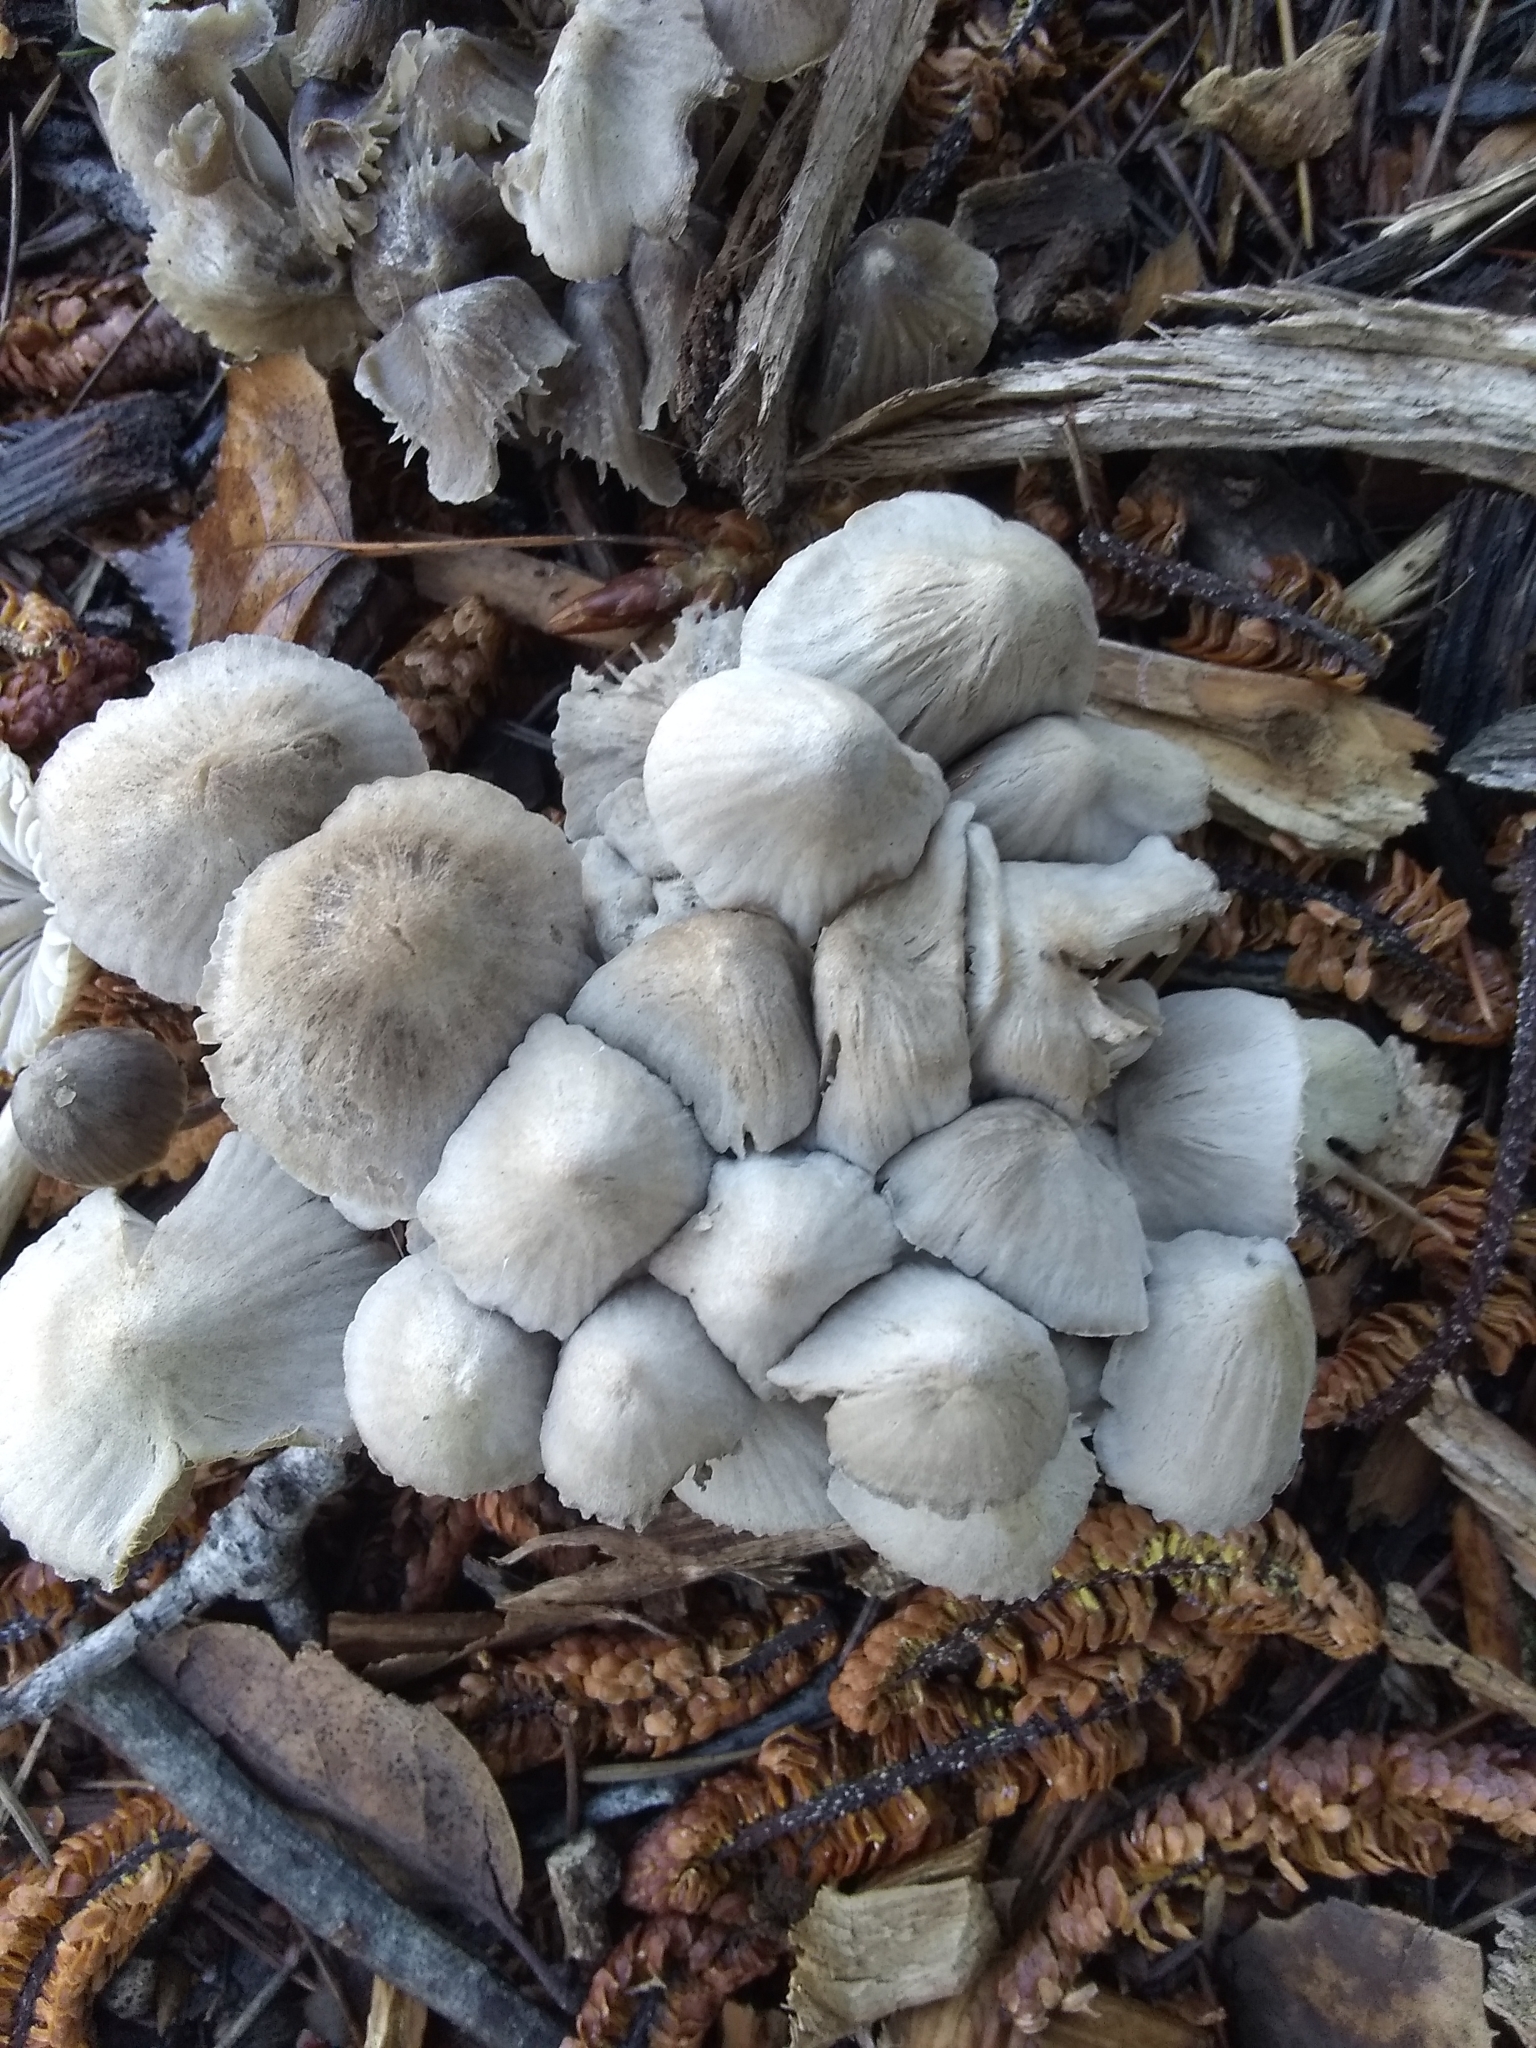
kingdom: Fungi
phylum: Basidiomycota
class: Agaricomycetes
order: Agaricales
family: Mycenaceae
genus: Mycena
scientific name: Mycena leptocephala
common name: Nitrous bonnet
